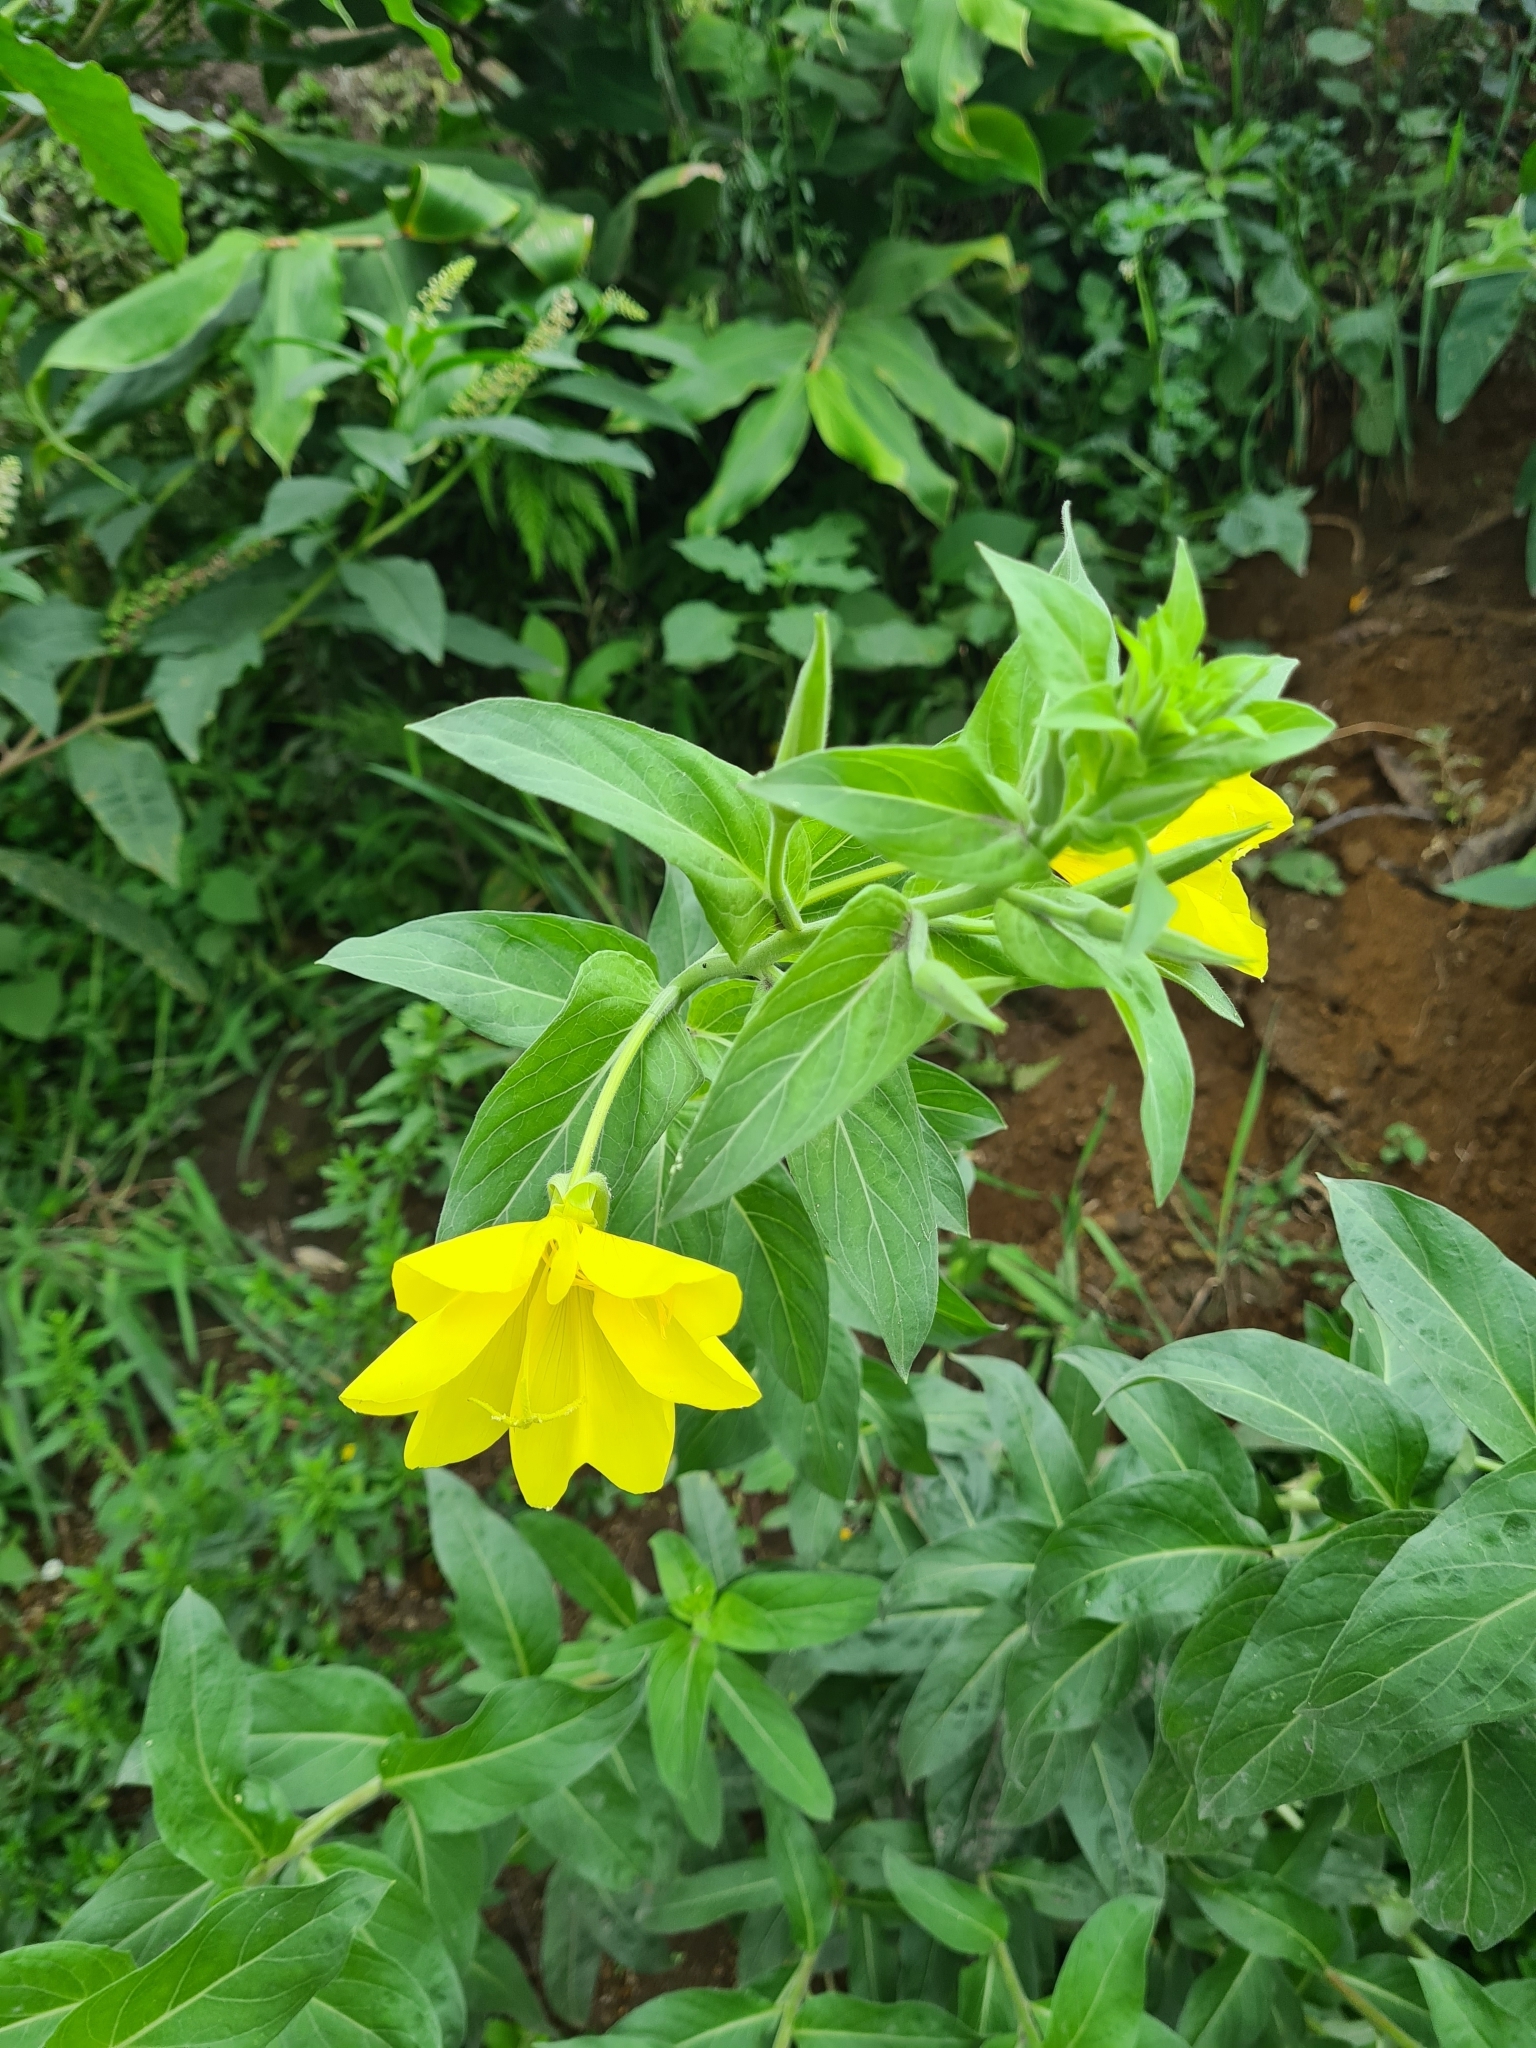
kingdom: Plantae
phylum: Tracheophyta
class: Magnoliopsida
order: Myrtales
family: Onagraceae
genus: Oenothera
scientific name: Oenothera glazioviana
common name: Large-flowered evening-primrose
